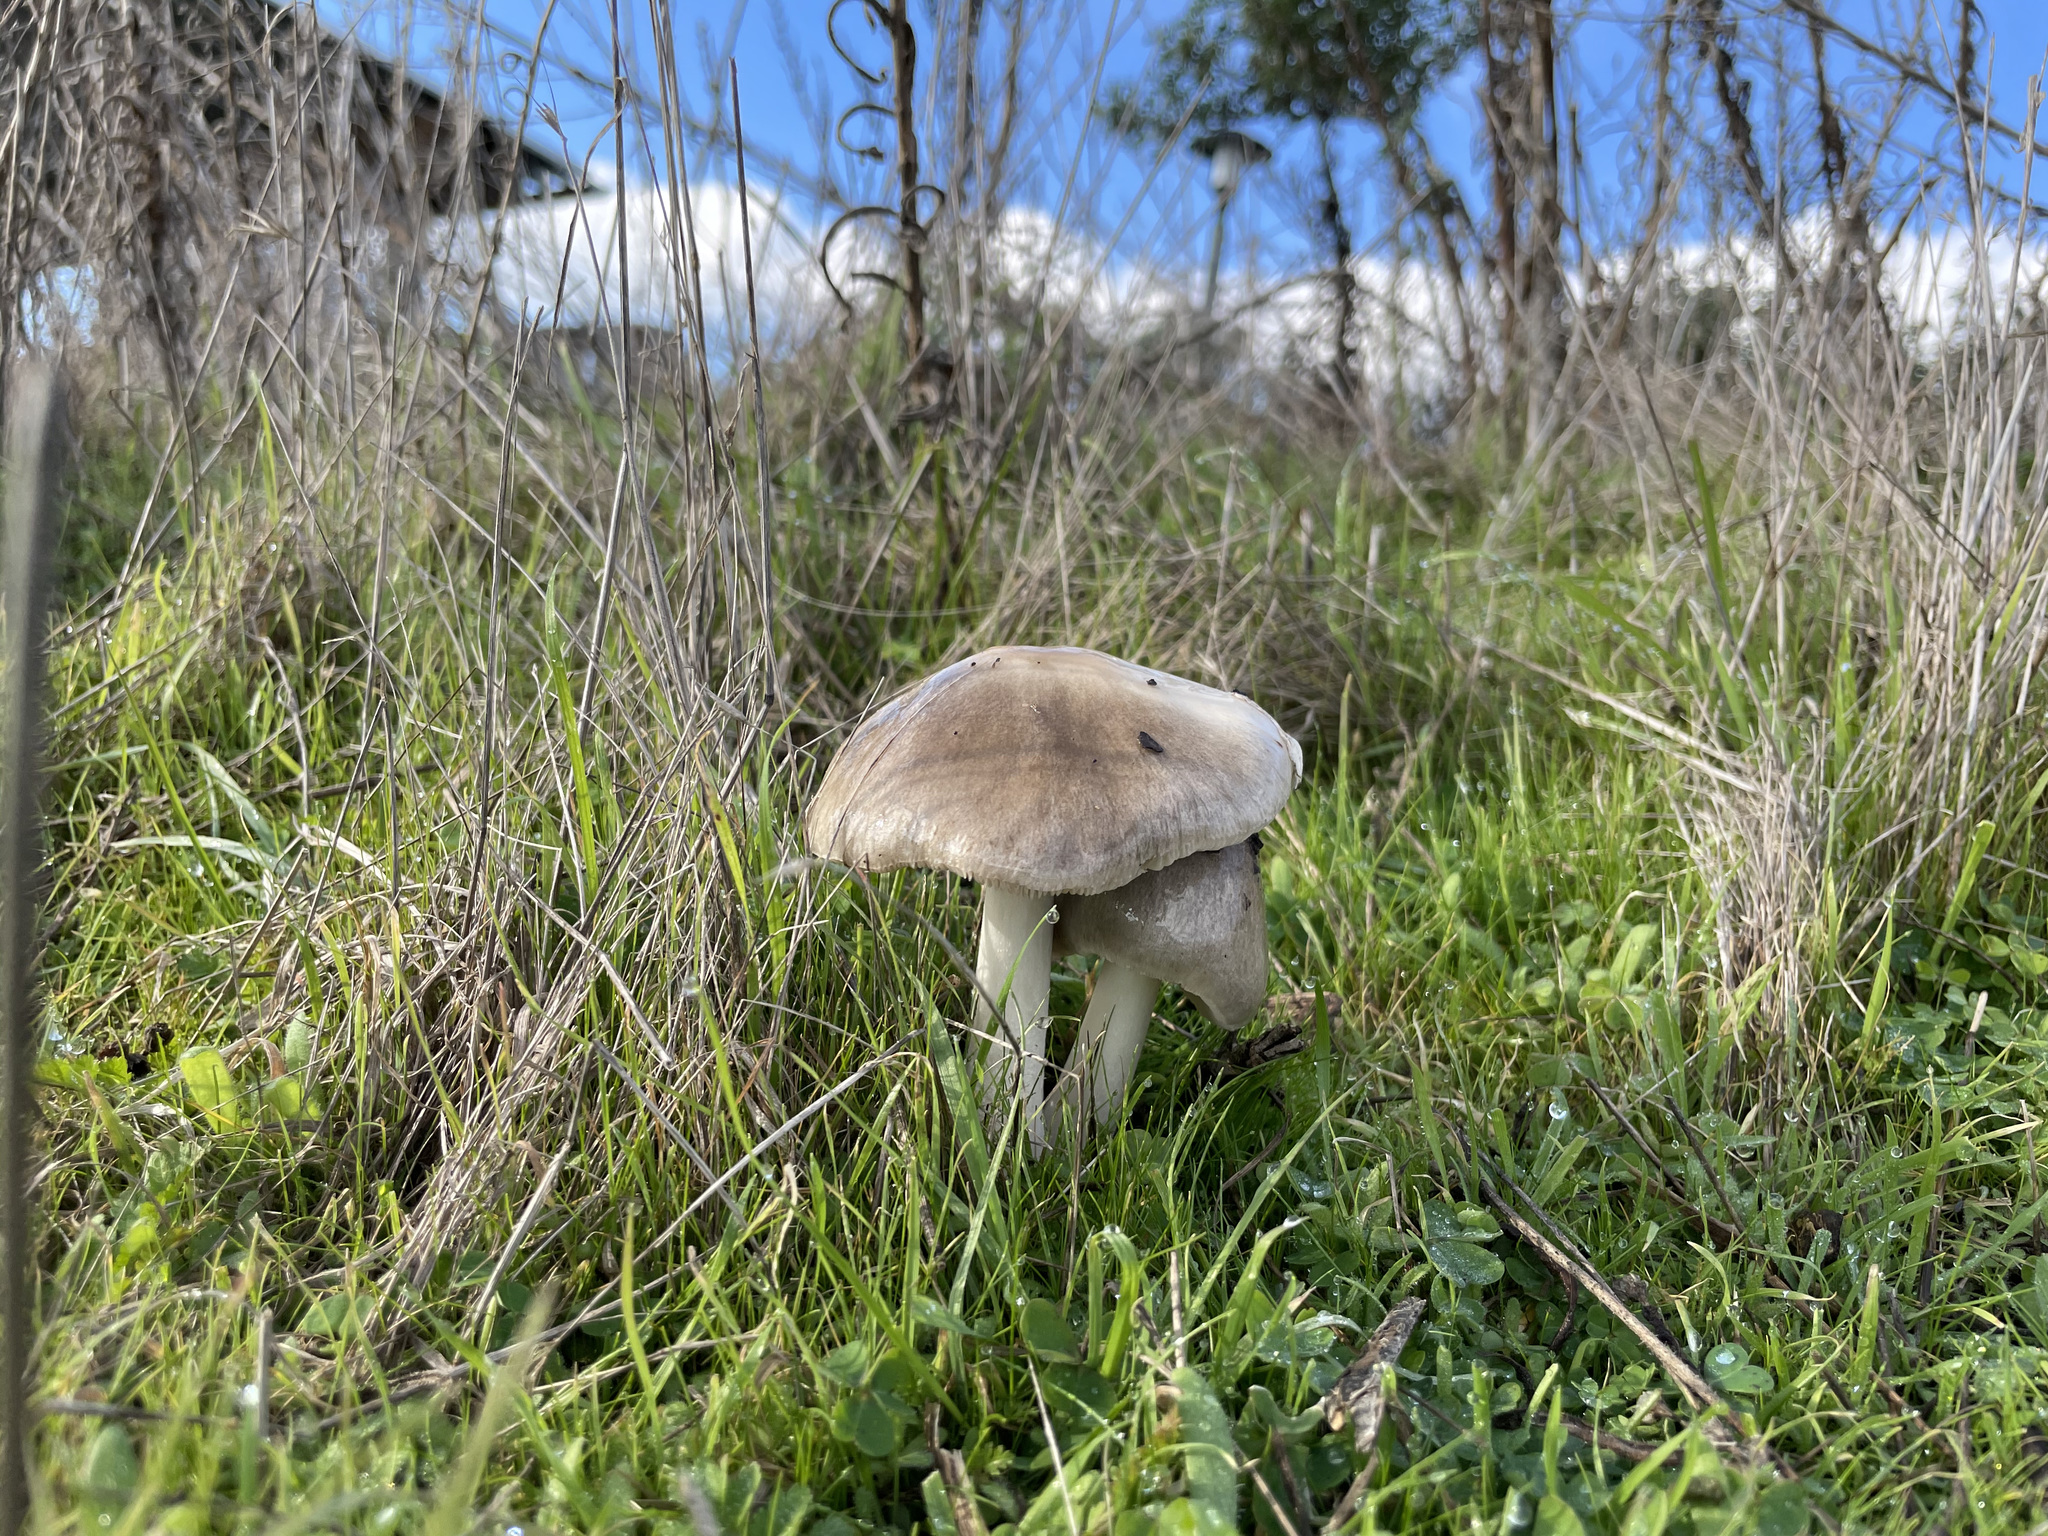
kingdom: Fungi
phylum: Basidiomycota
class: Agaricomycetes
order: Agaricales
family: Pluteaceae
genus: Volvopluteus
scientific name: Volvopluteus gloiocephalus
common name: Stubble rosegill
